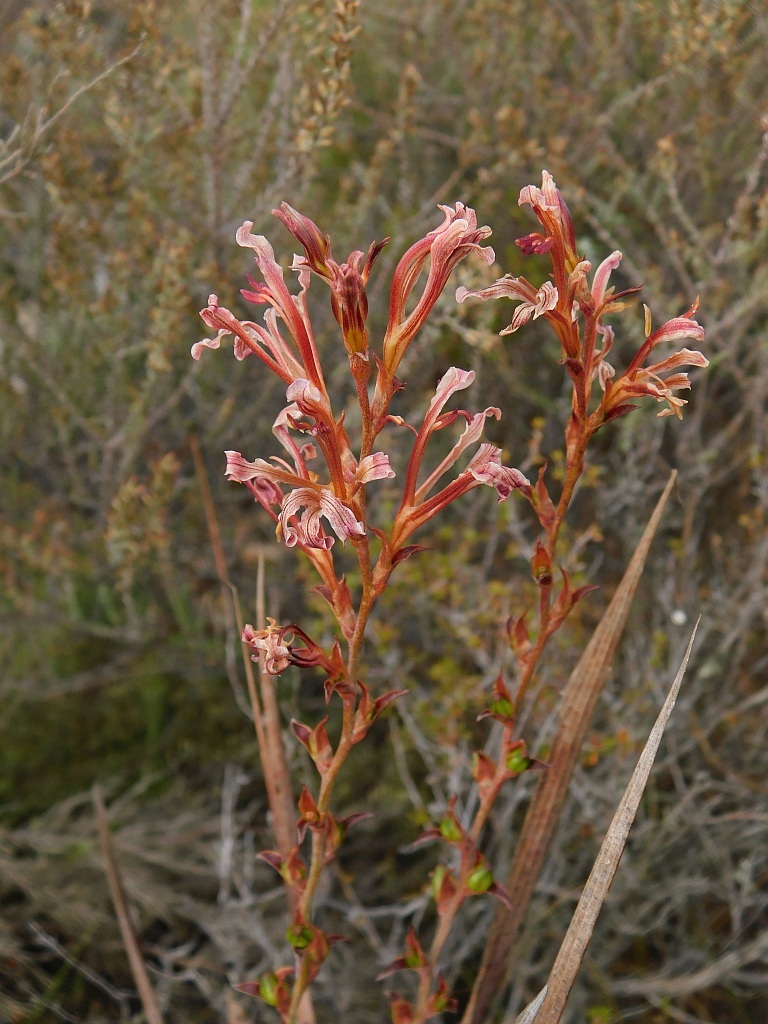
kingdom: Plantae
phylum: Tracheophyta
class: Liliopsida
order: Asparagales
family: Iridaceae
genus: Tritoniopsis
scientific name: Tritoniopsis elongata
